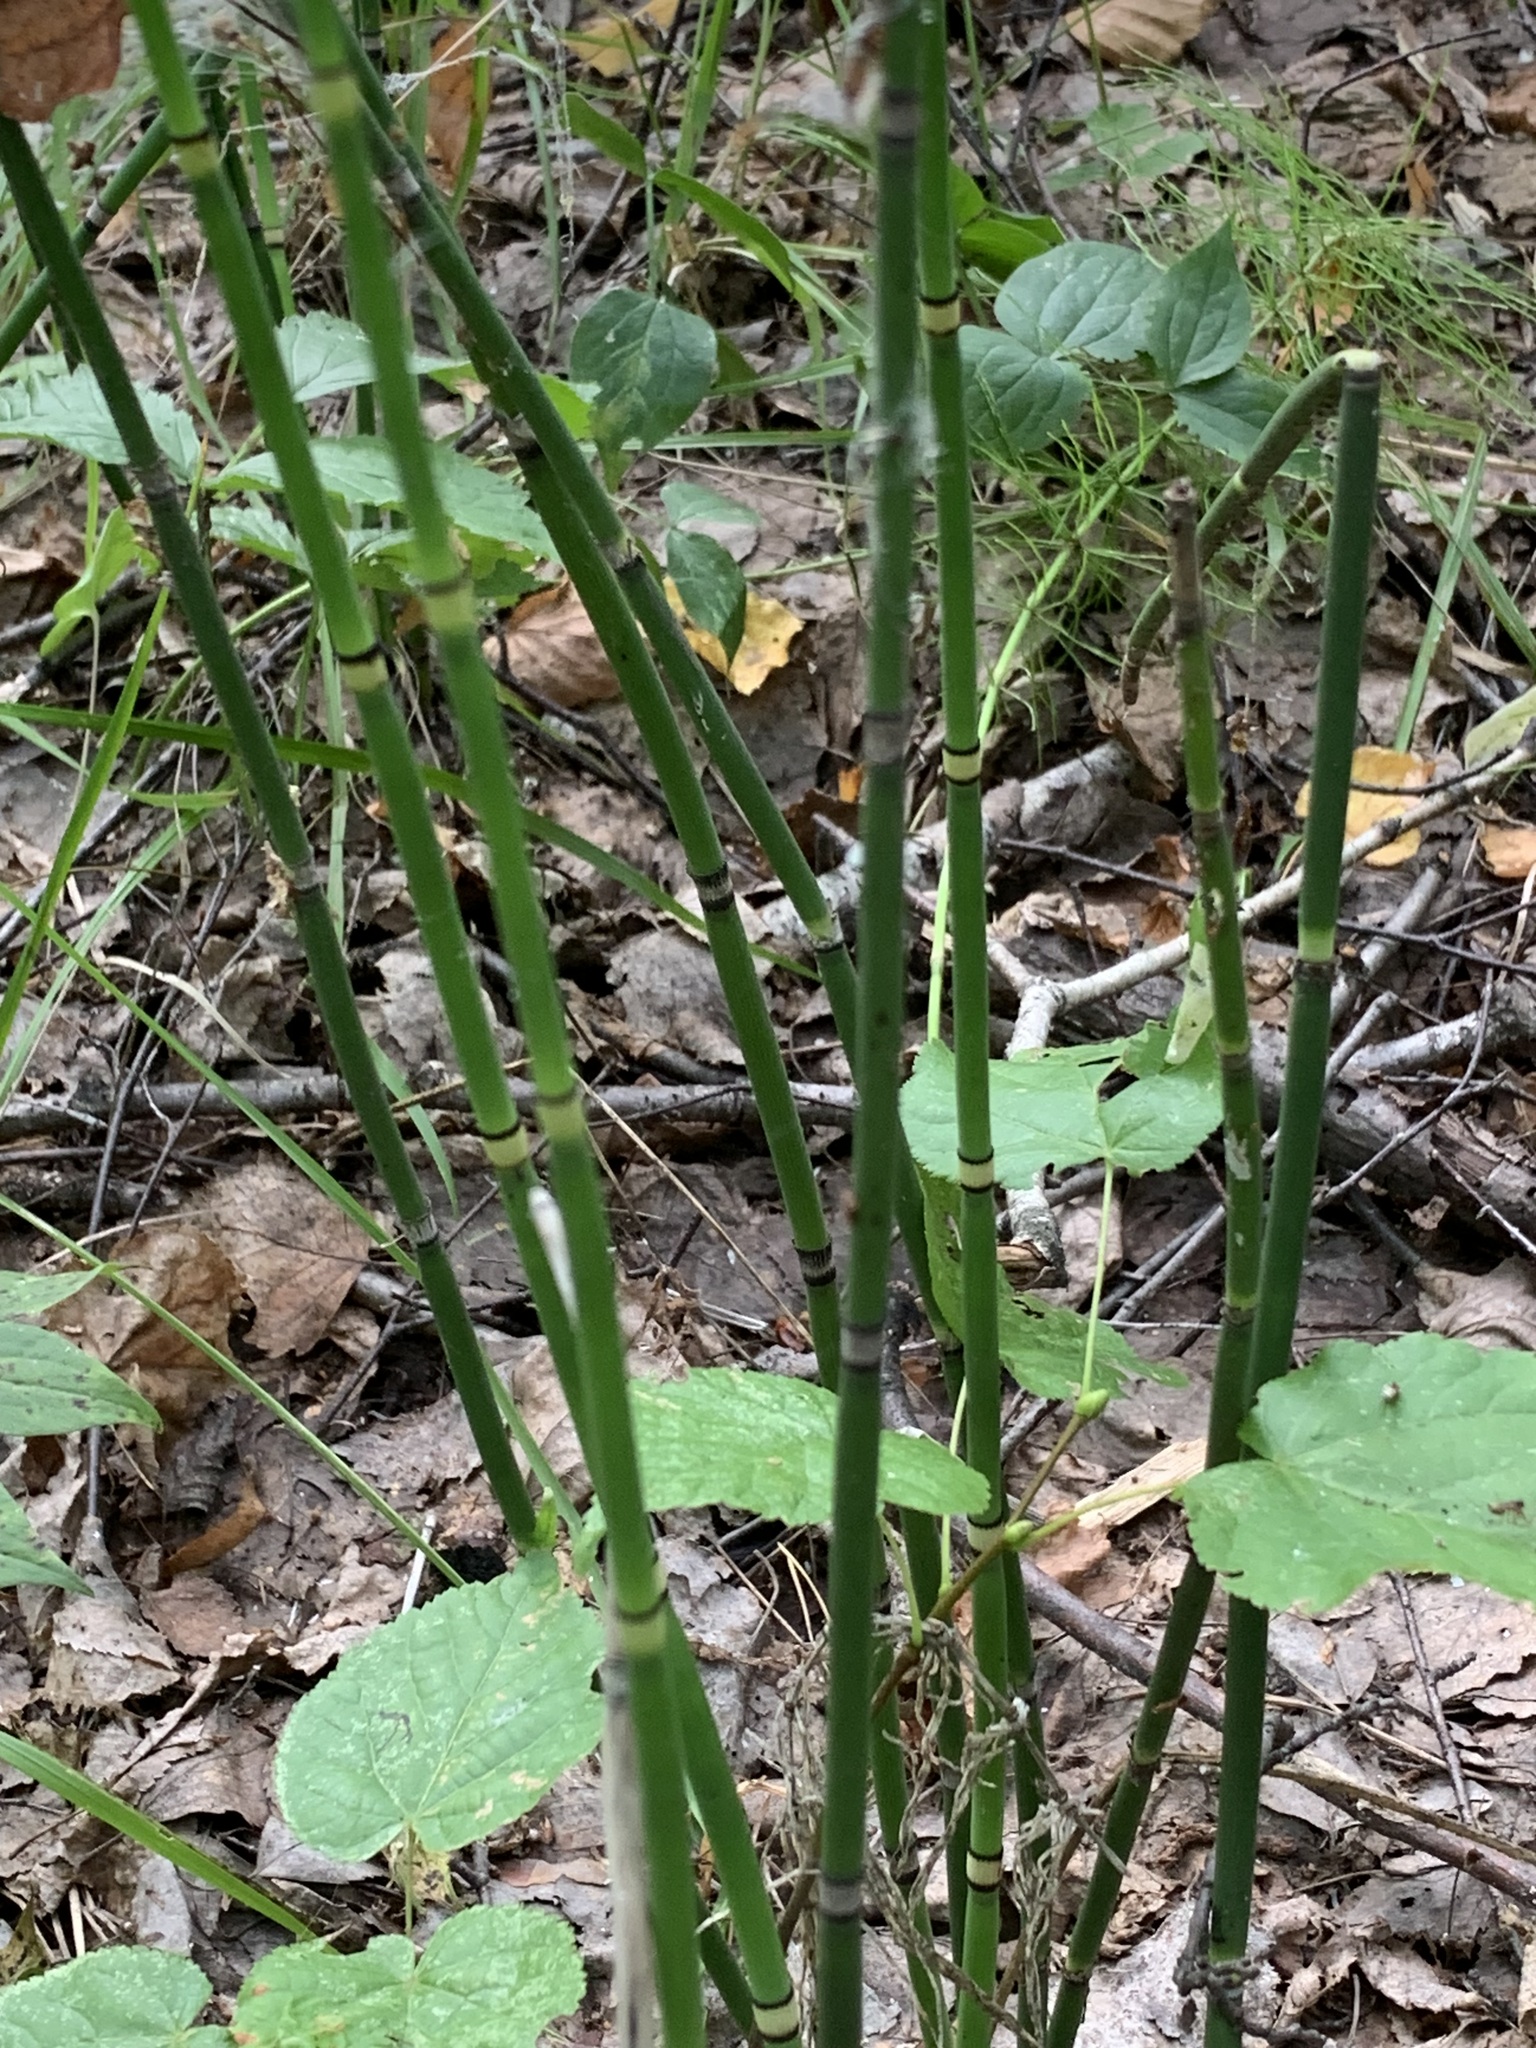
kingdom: Plantae
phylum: Tracheophyta
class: Polypodiopsida
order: Equisetales
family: Equisetaceae
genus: Equisetum
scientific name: Equisetum hyemale
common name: Rough horsetail
